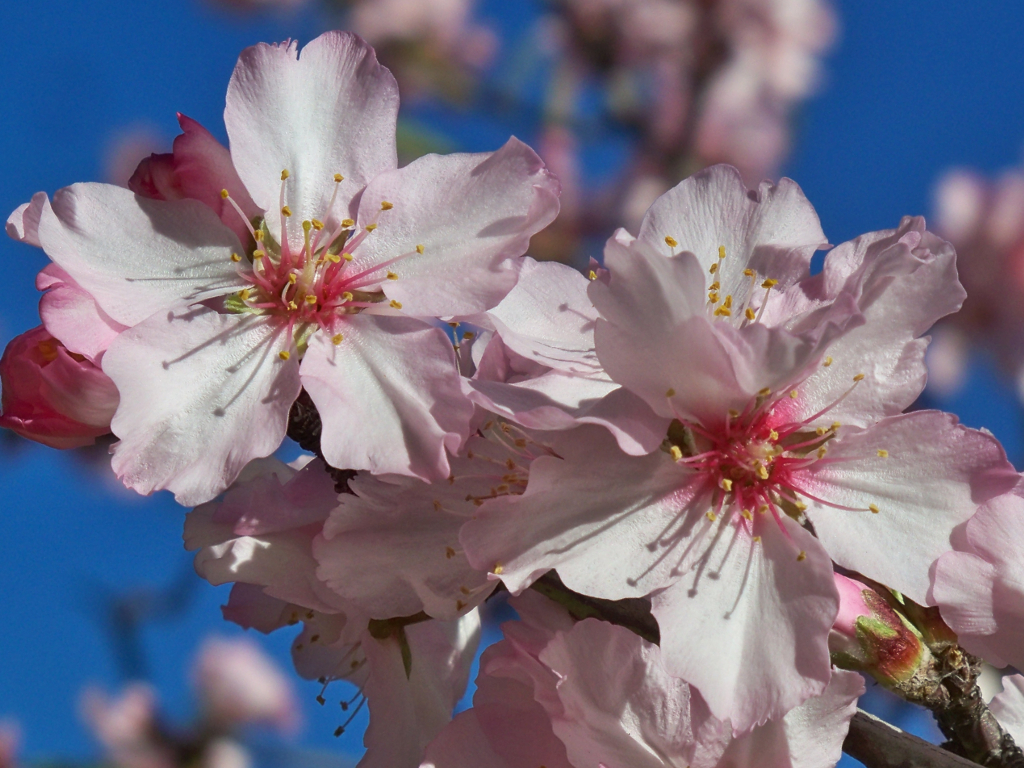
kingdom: Plantae
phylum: Tracheophyta
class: Magnoliopsida
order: Rosales
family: Rosaceae
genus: Prunus
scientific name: Prunus amygdalus
